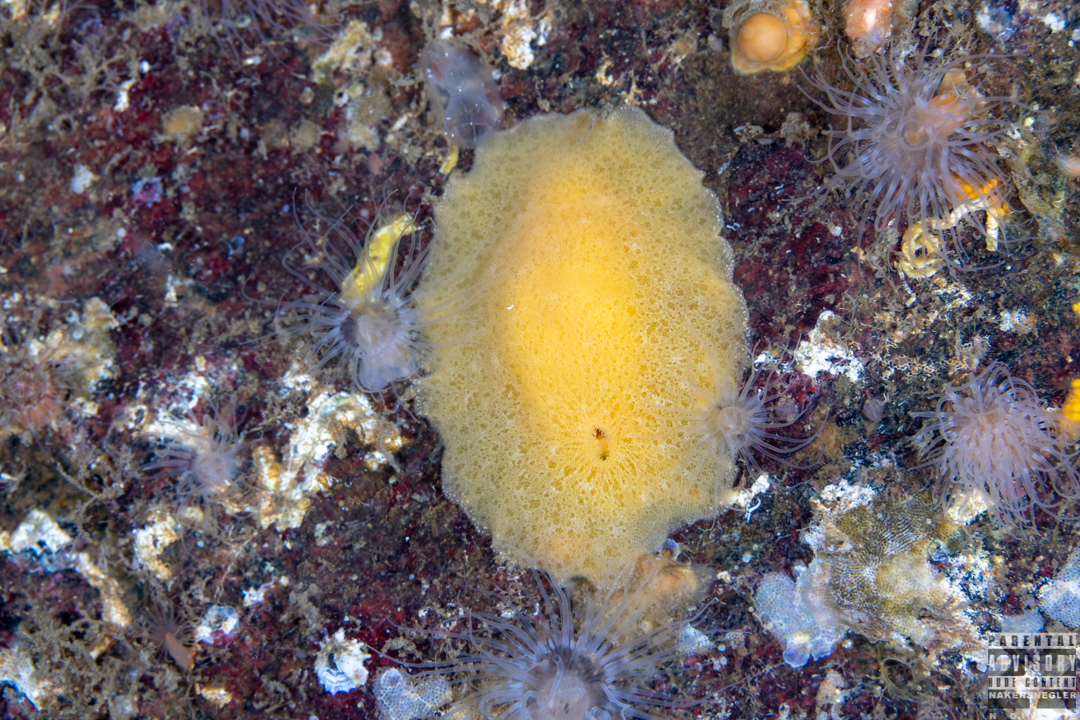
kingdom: Animalia
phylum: Mollusca
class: Gastropoda
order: Nudibranchia
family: Discodorididae
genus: Jorunna
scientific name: Jorunna tomentosa
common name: Grey sea slug
